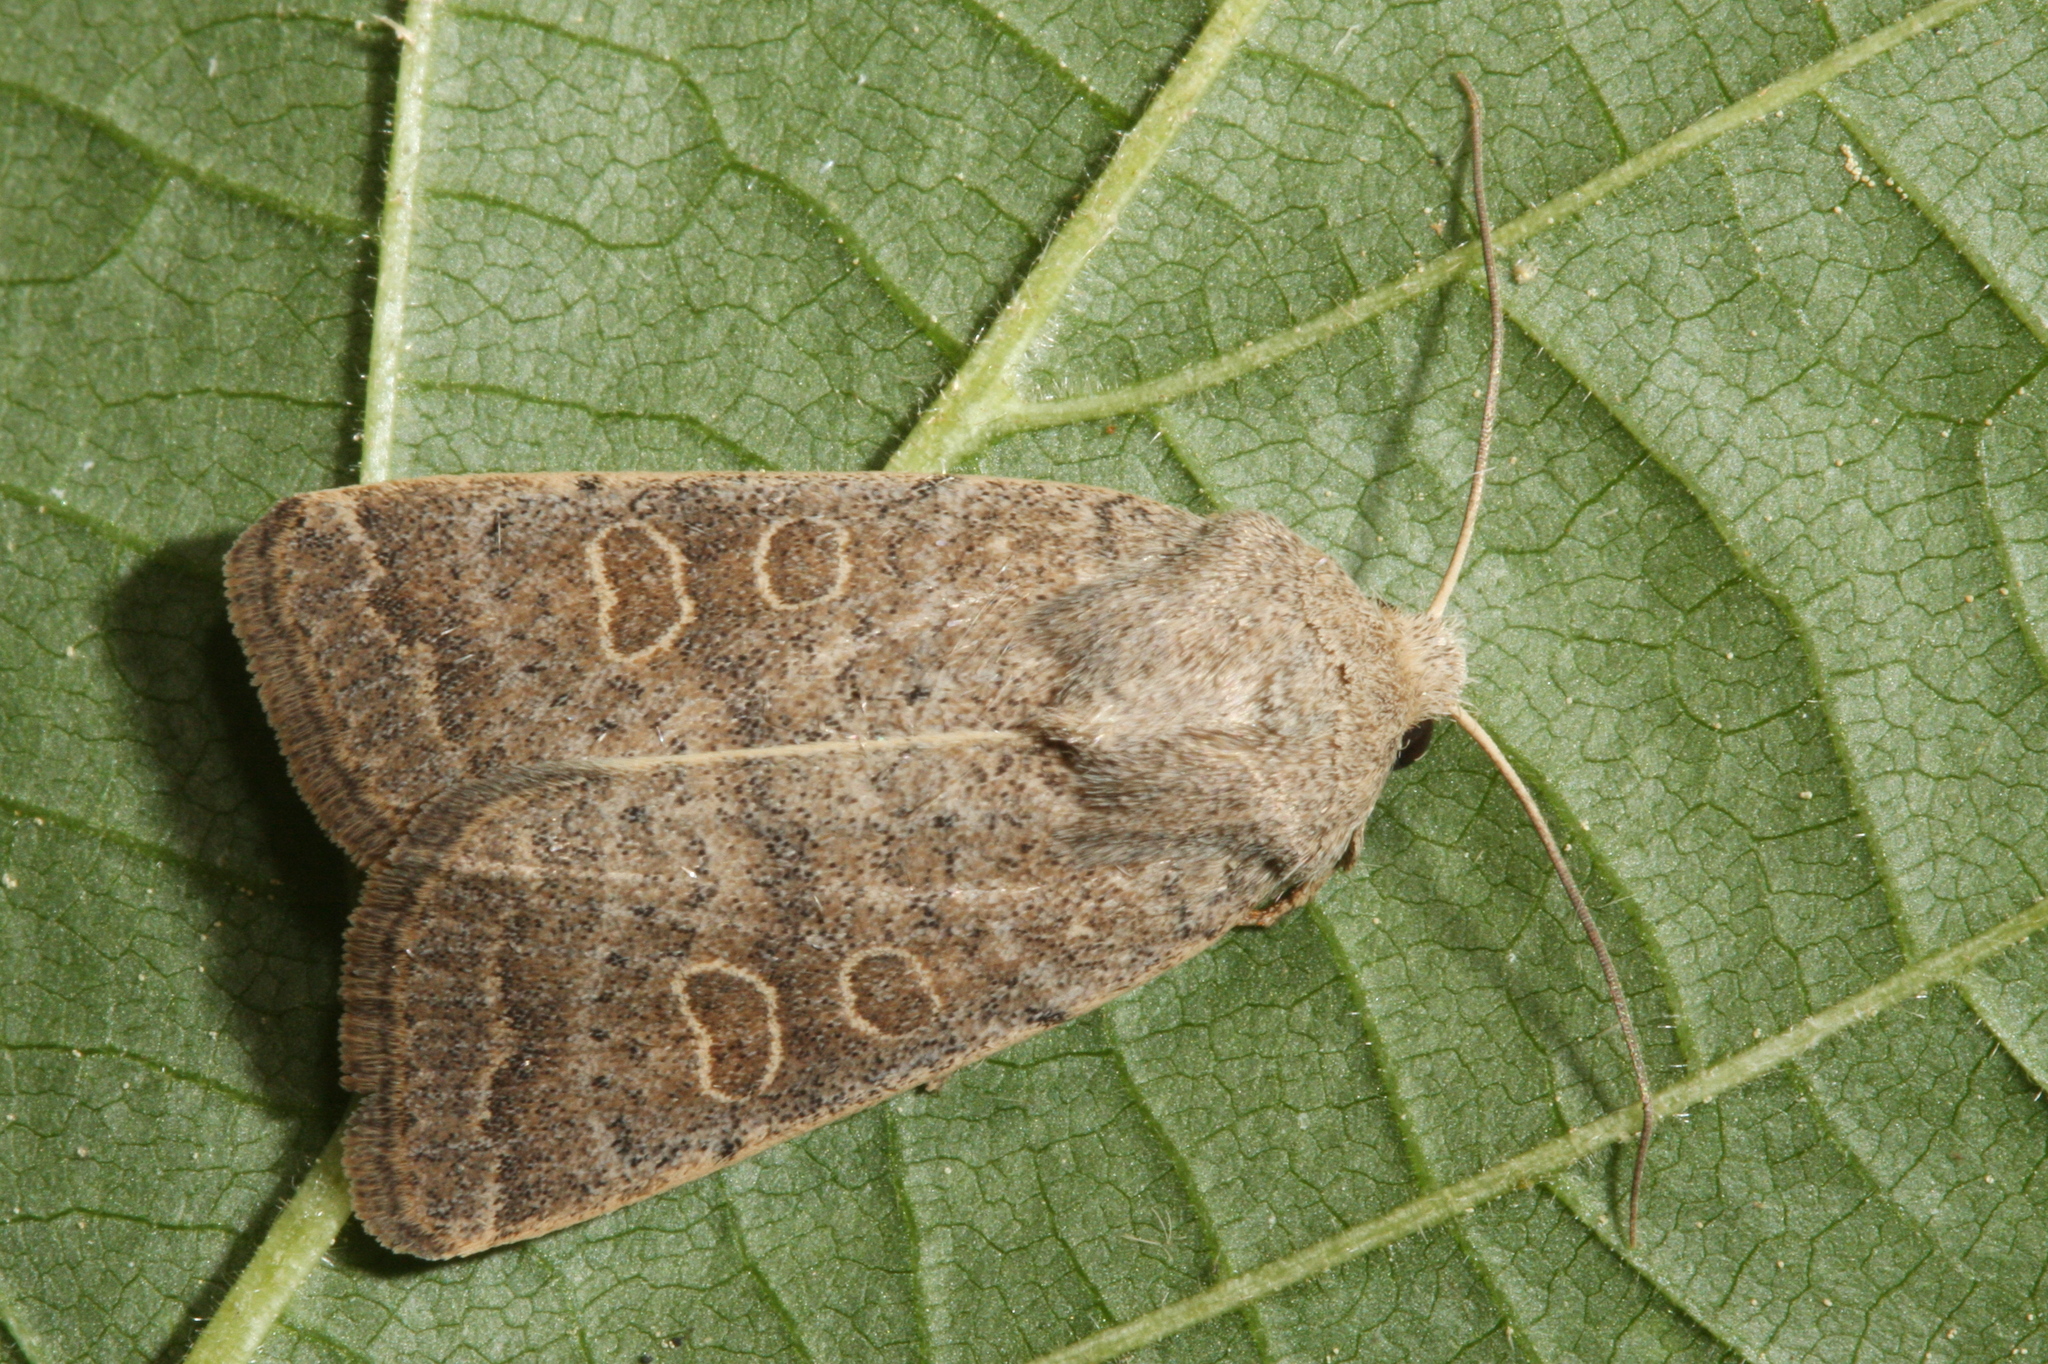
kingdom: Animalia
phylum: Arthropoda
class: Insecta
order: Lepidoptera
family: Noctuidae
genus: Hoplodrina
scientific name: Hoplodrina ambigua
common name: Vine's rustic
